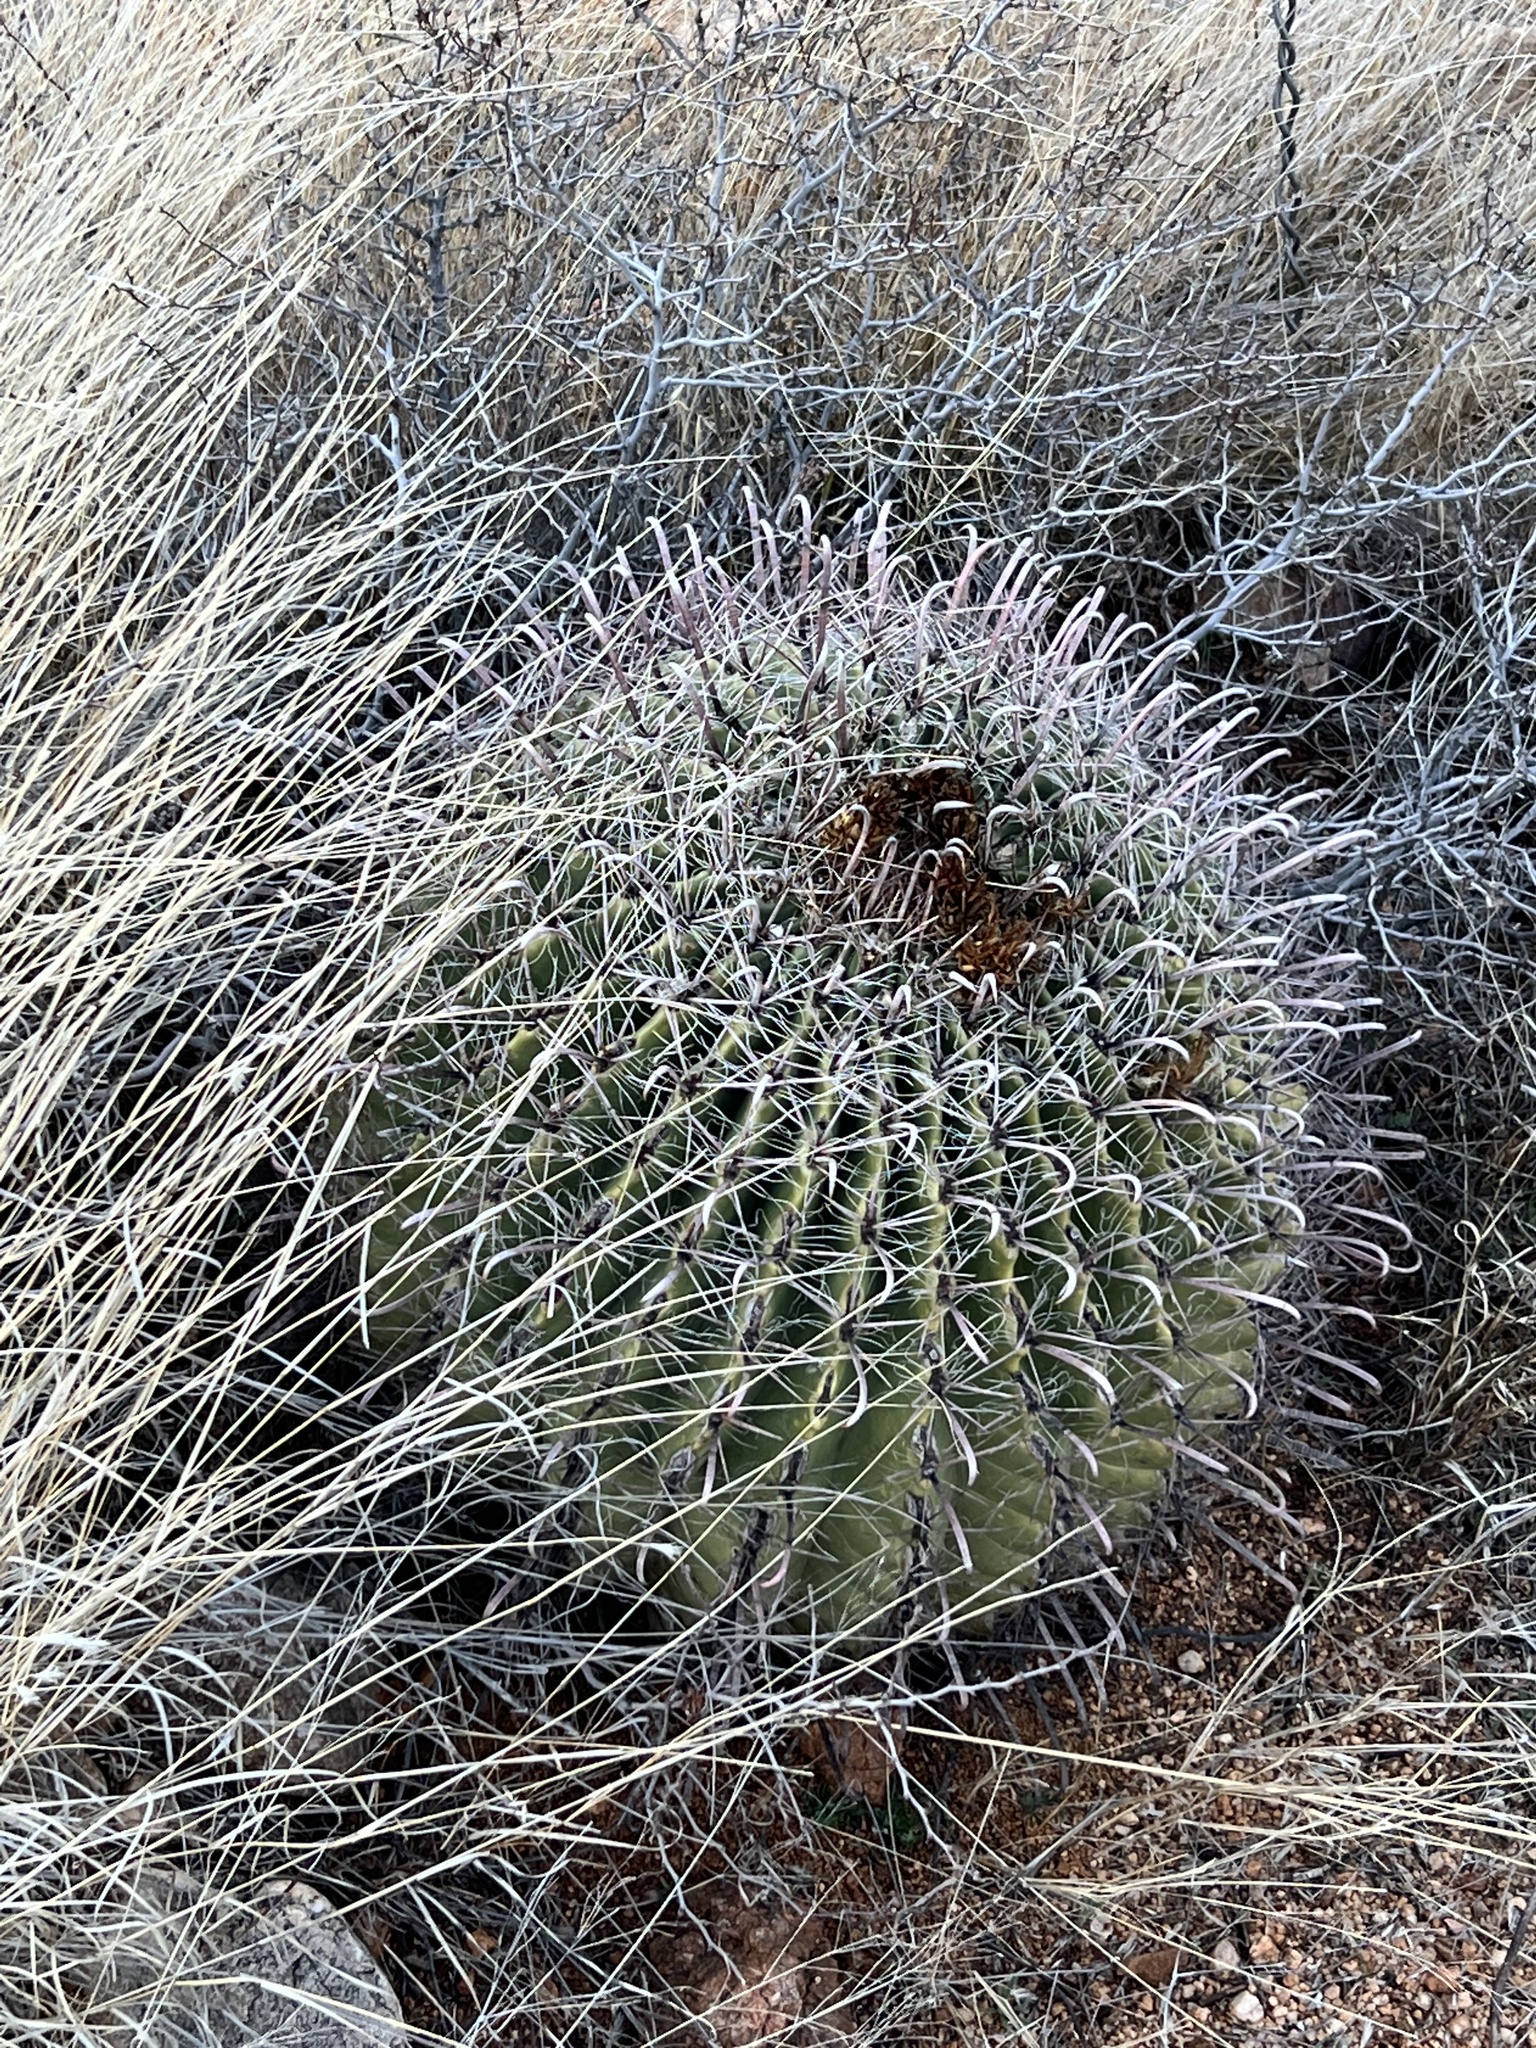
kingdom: Plantae
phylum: Tracheophyta
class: Magnoliopsida
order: Caryophyllales
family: Cactaceae
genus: Ferocactus
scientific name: Ferocactus wislizeni
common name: Candy barrel cactus
